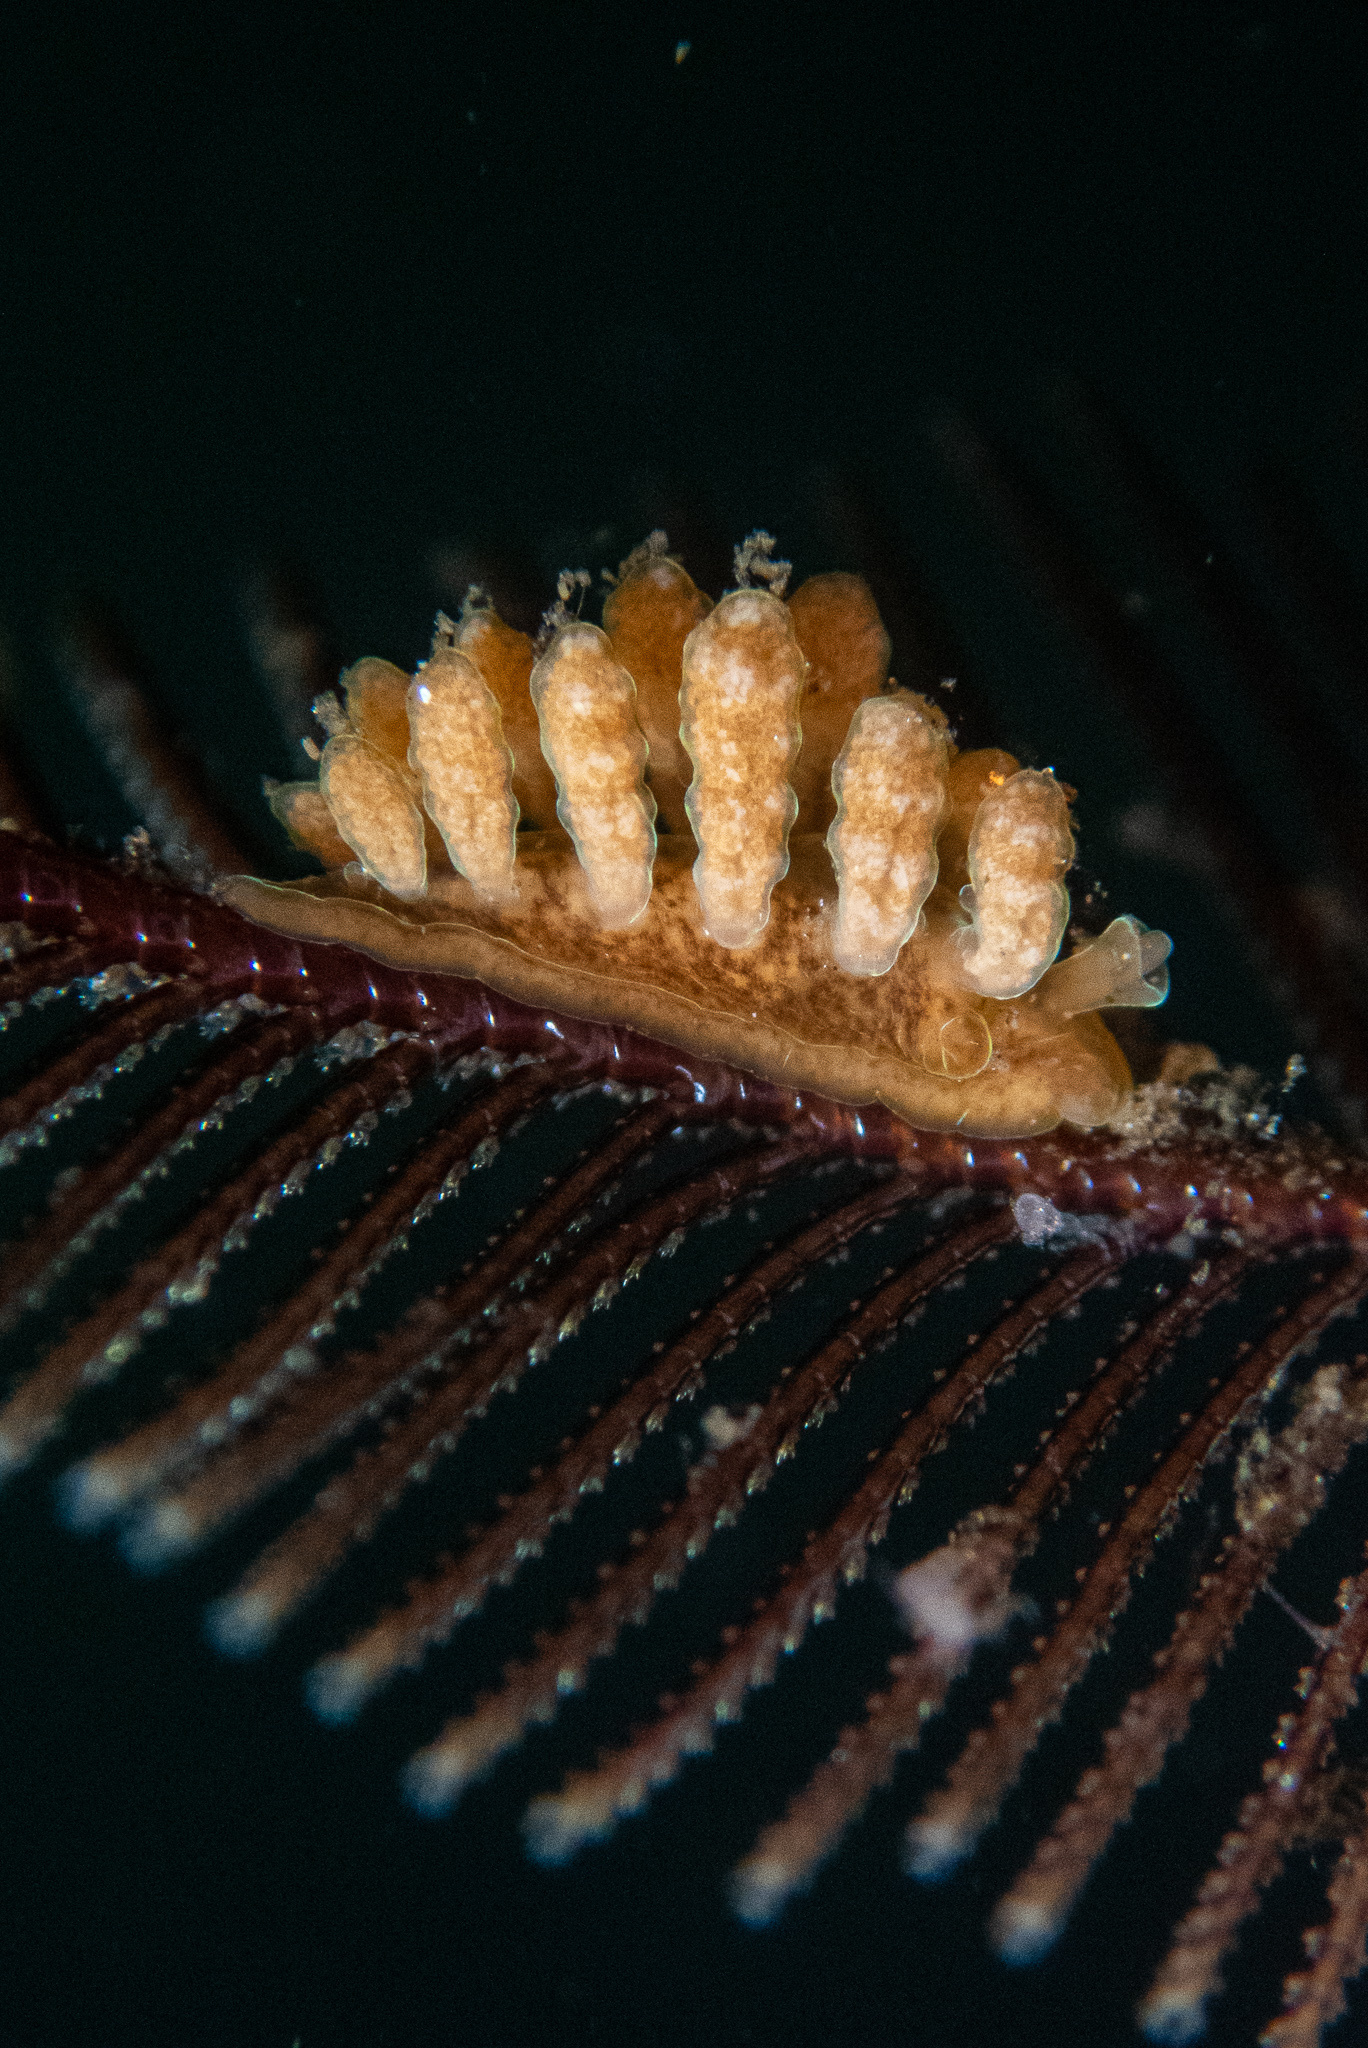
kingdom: Animalia
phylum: Mollusca
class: Gastropoda
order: Nudibranchia
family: Dotidae
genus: Doto
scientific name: Doto columbiana
